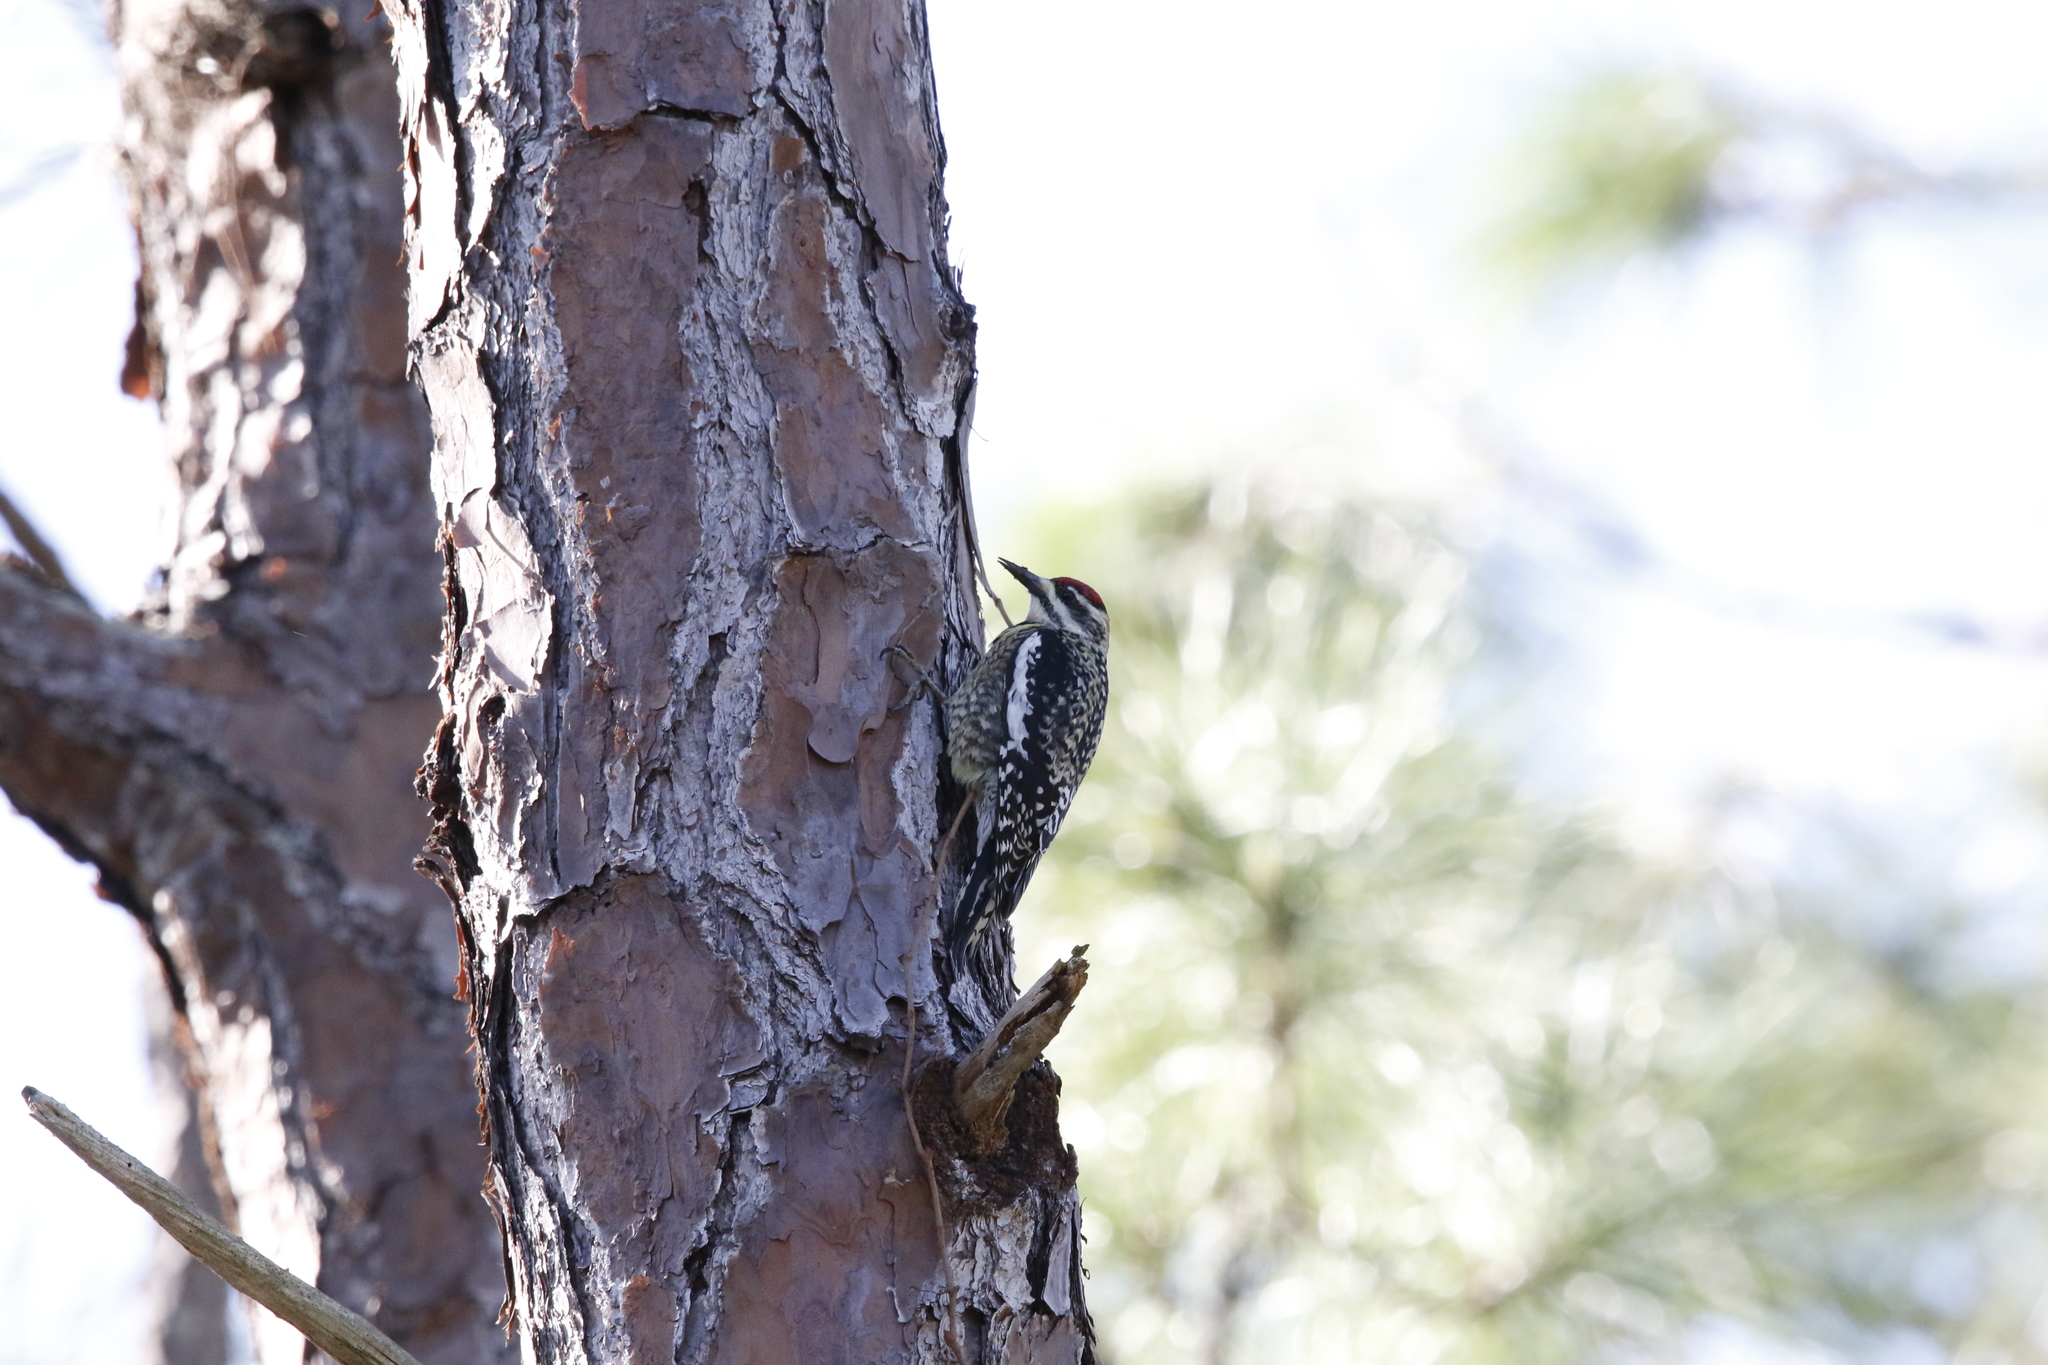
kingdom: Animalia
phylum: Chordata
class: Aves
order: Piciformes
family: Picidae
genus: Sphyrapicus
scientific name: Sphyrapicus varius
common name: Yellow-bellied sapsucker
